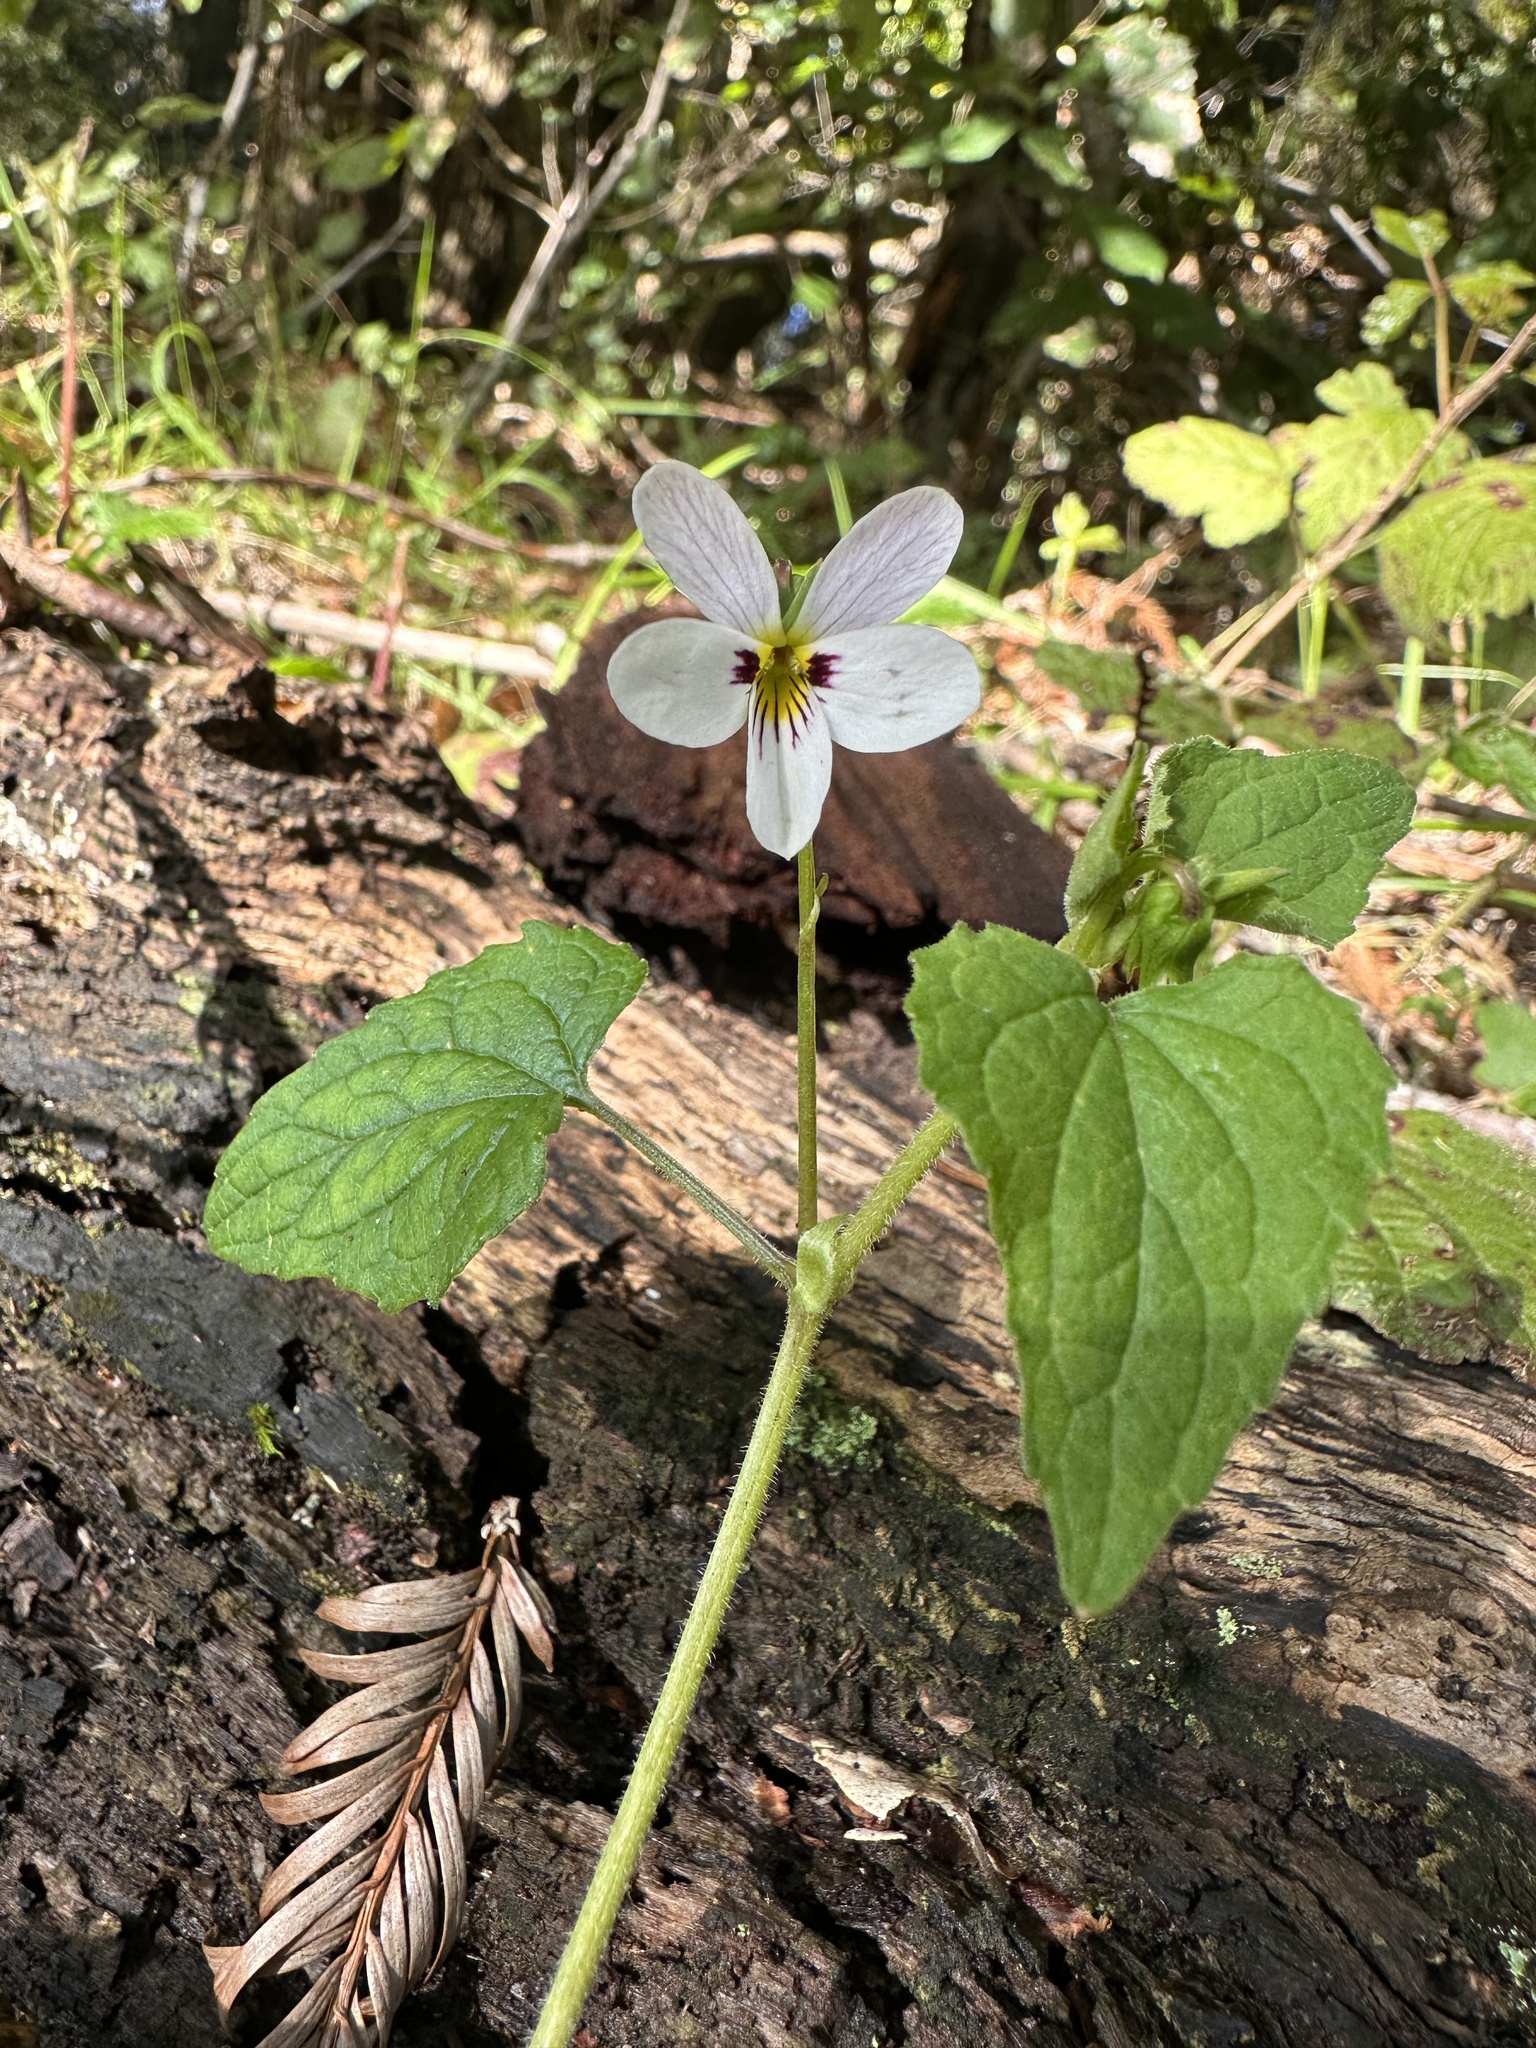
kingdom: Plantae
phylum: Tracheophyta
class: Magnoliopsida
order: Malpighiales
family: Violaceae
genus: Viola
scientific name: Viola ocellata
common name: Western heart's ease
